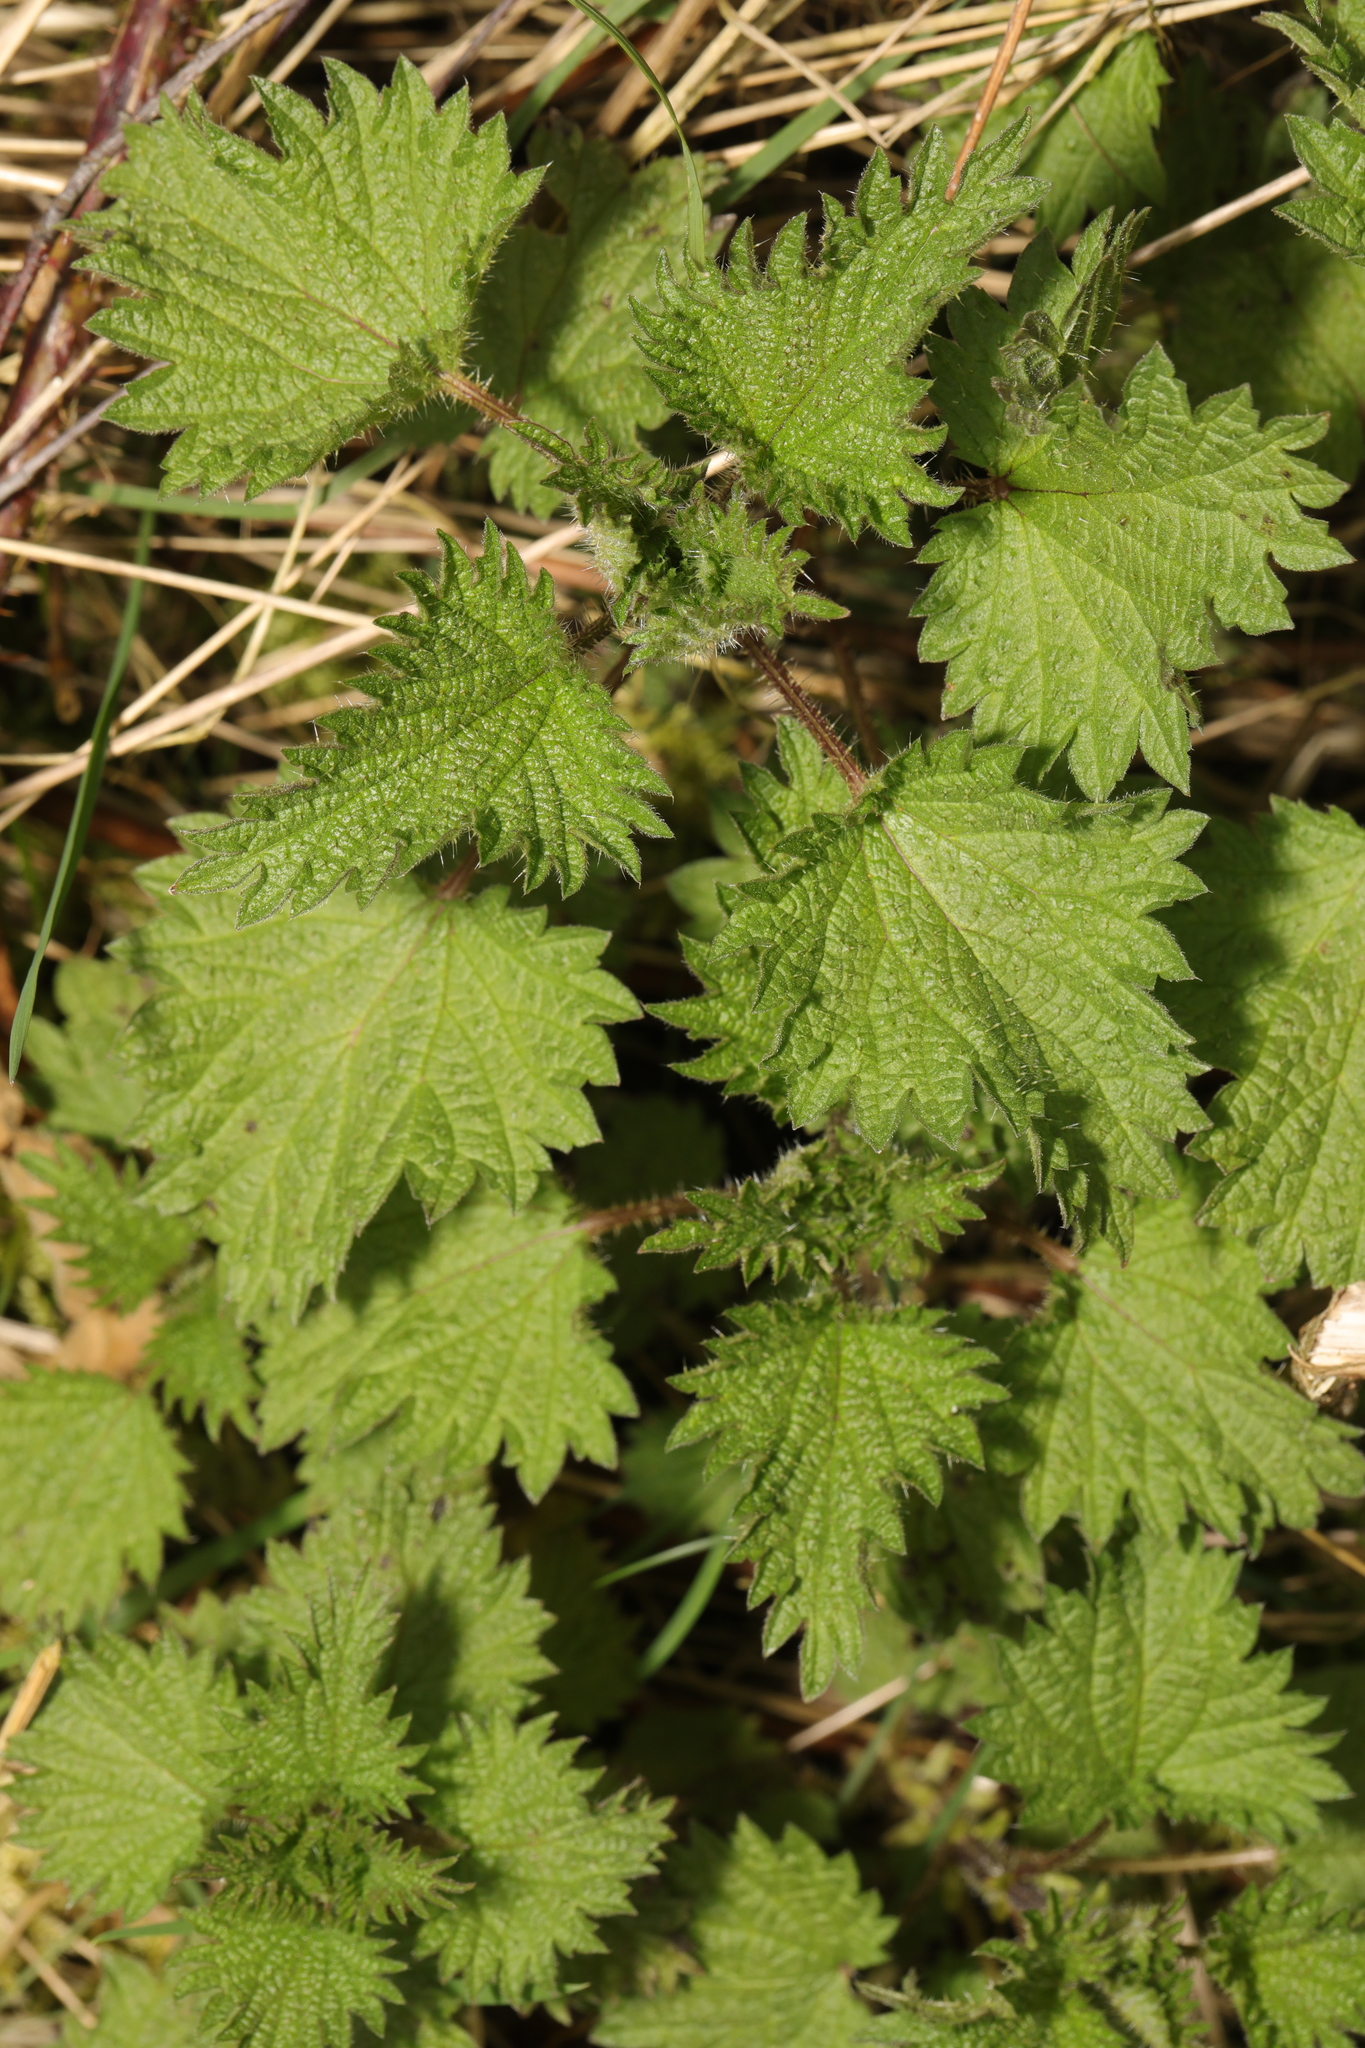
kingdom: Plantae
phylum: Tracheophyta
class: Magnoliopsida
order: Rosales
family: Urticaceae
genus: Urtica
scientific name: Urtica dioica
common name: Common nettle
